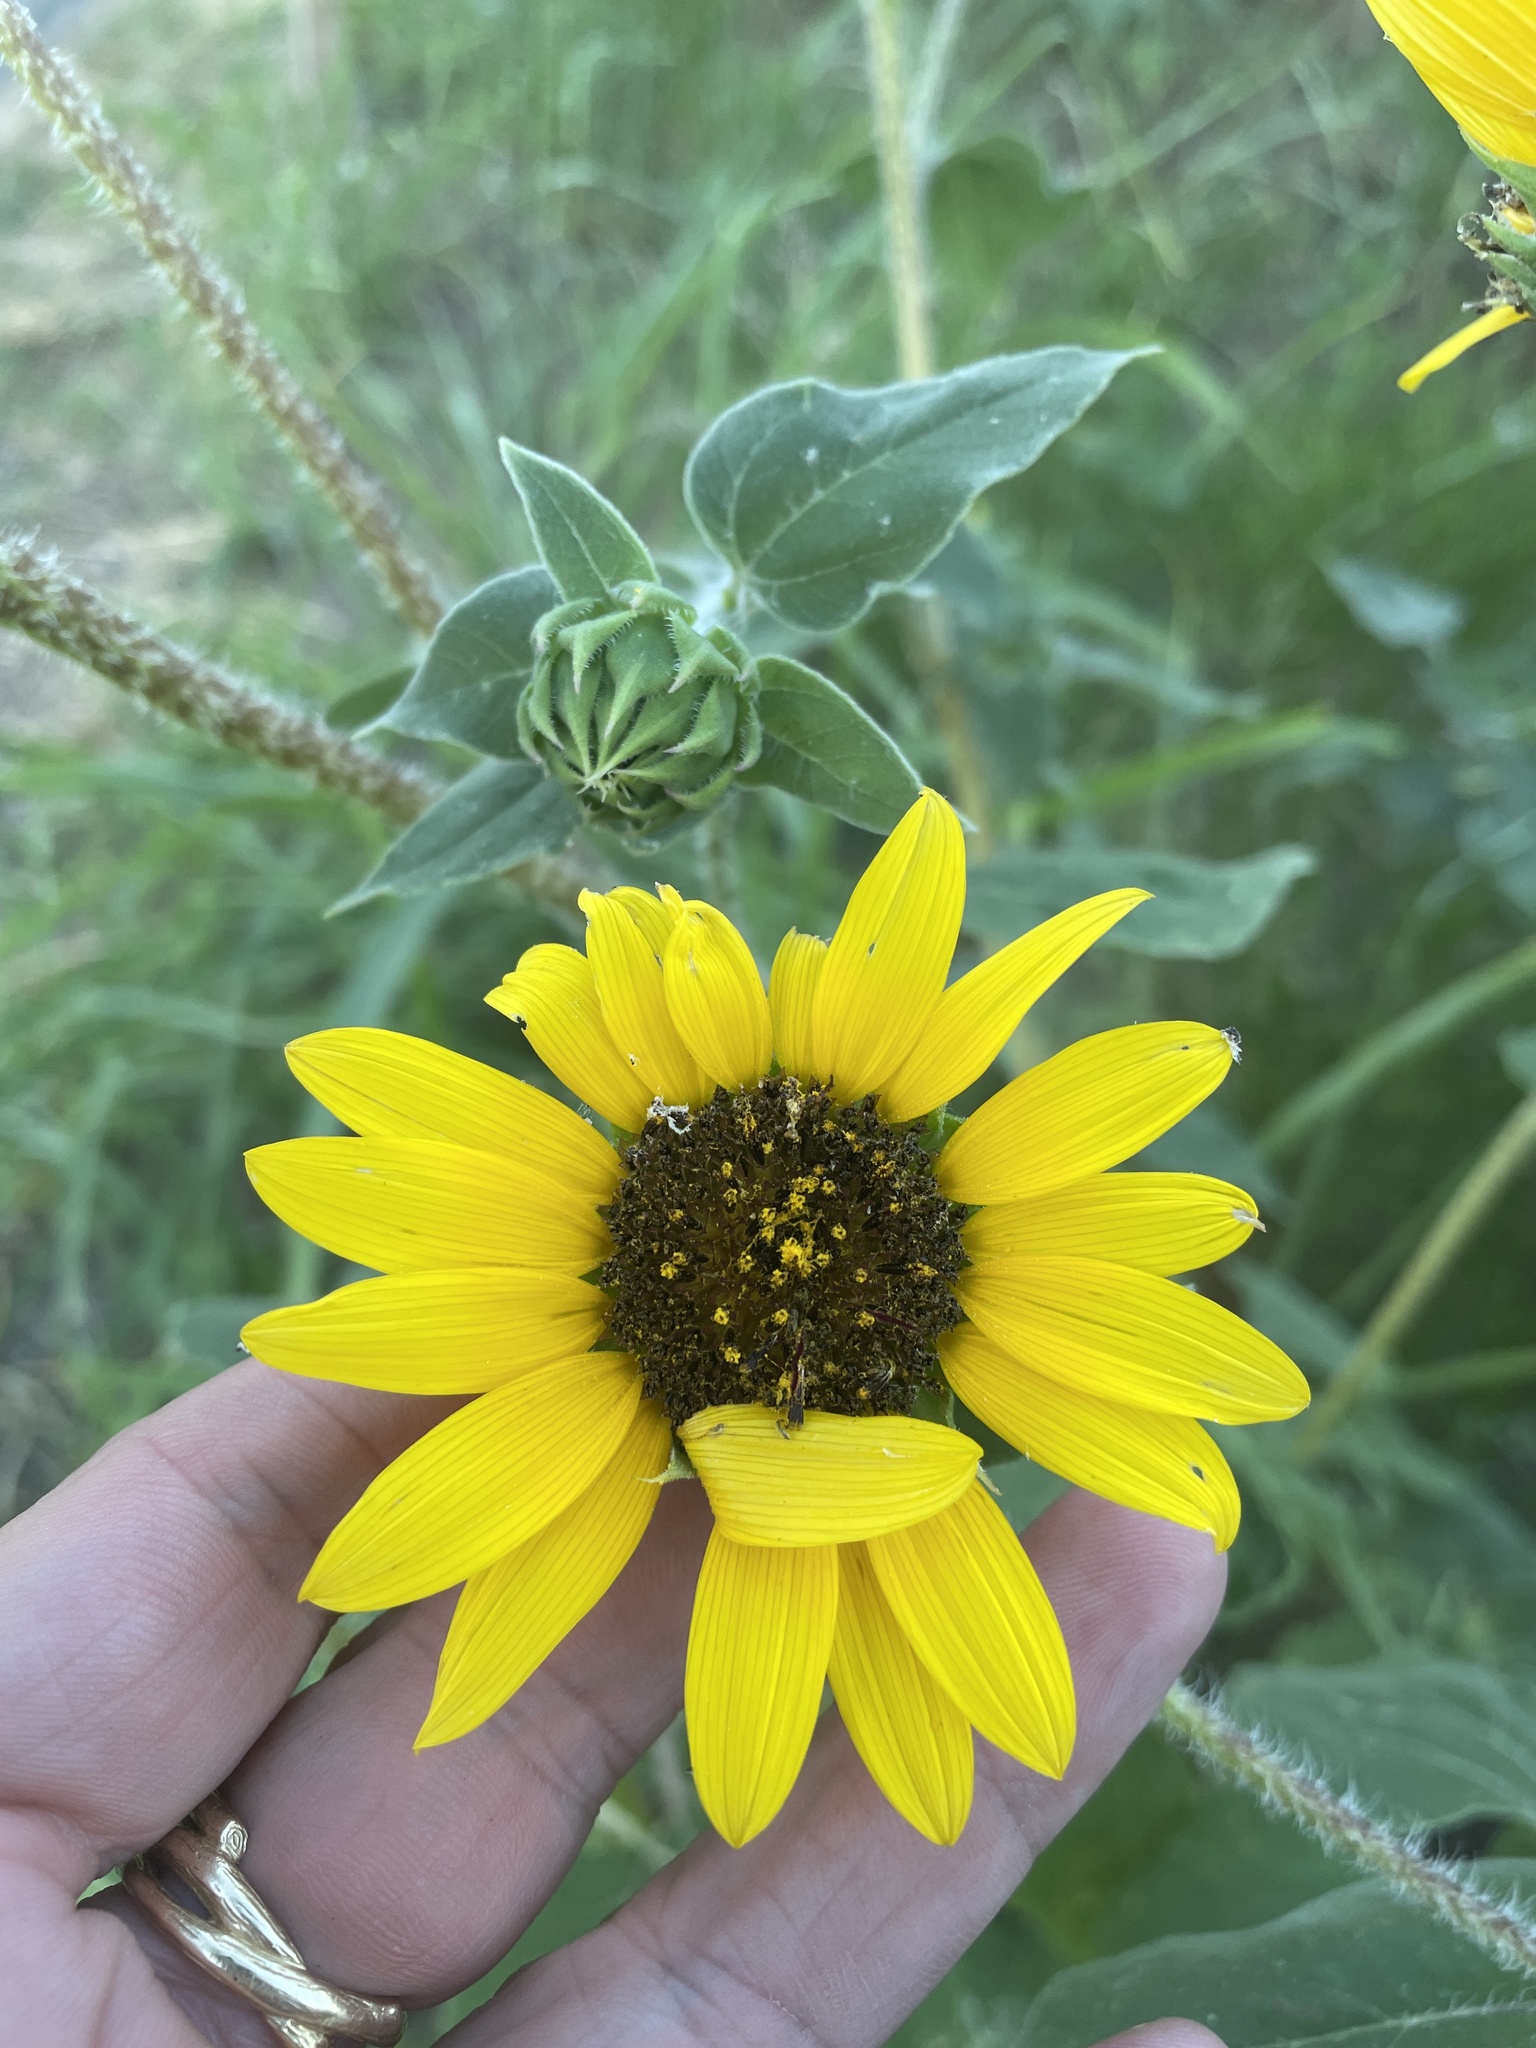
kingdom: Plantae
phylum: Tracheophyta
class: Magnoliopsida
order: Asterales
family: Asteraceae
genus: Helianthus
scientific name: Helianthus annuus
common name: Sunflower
